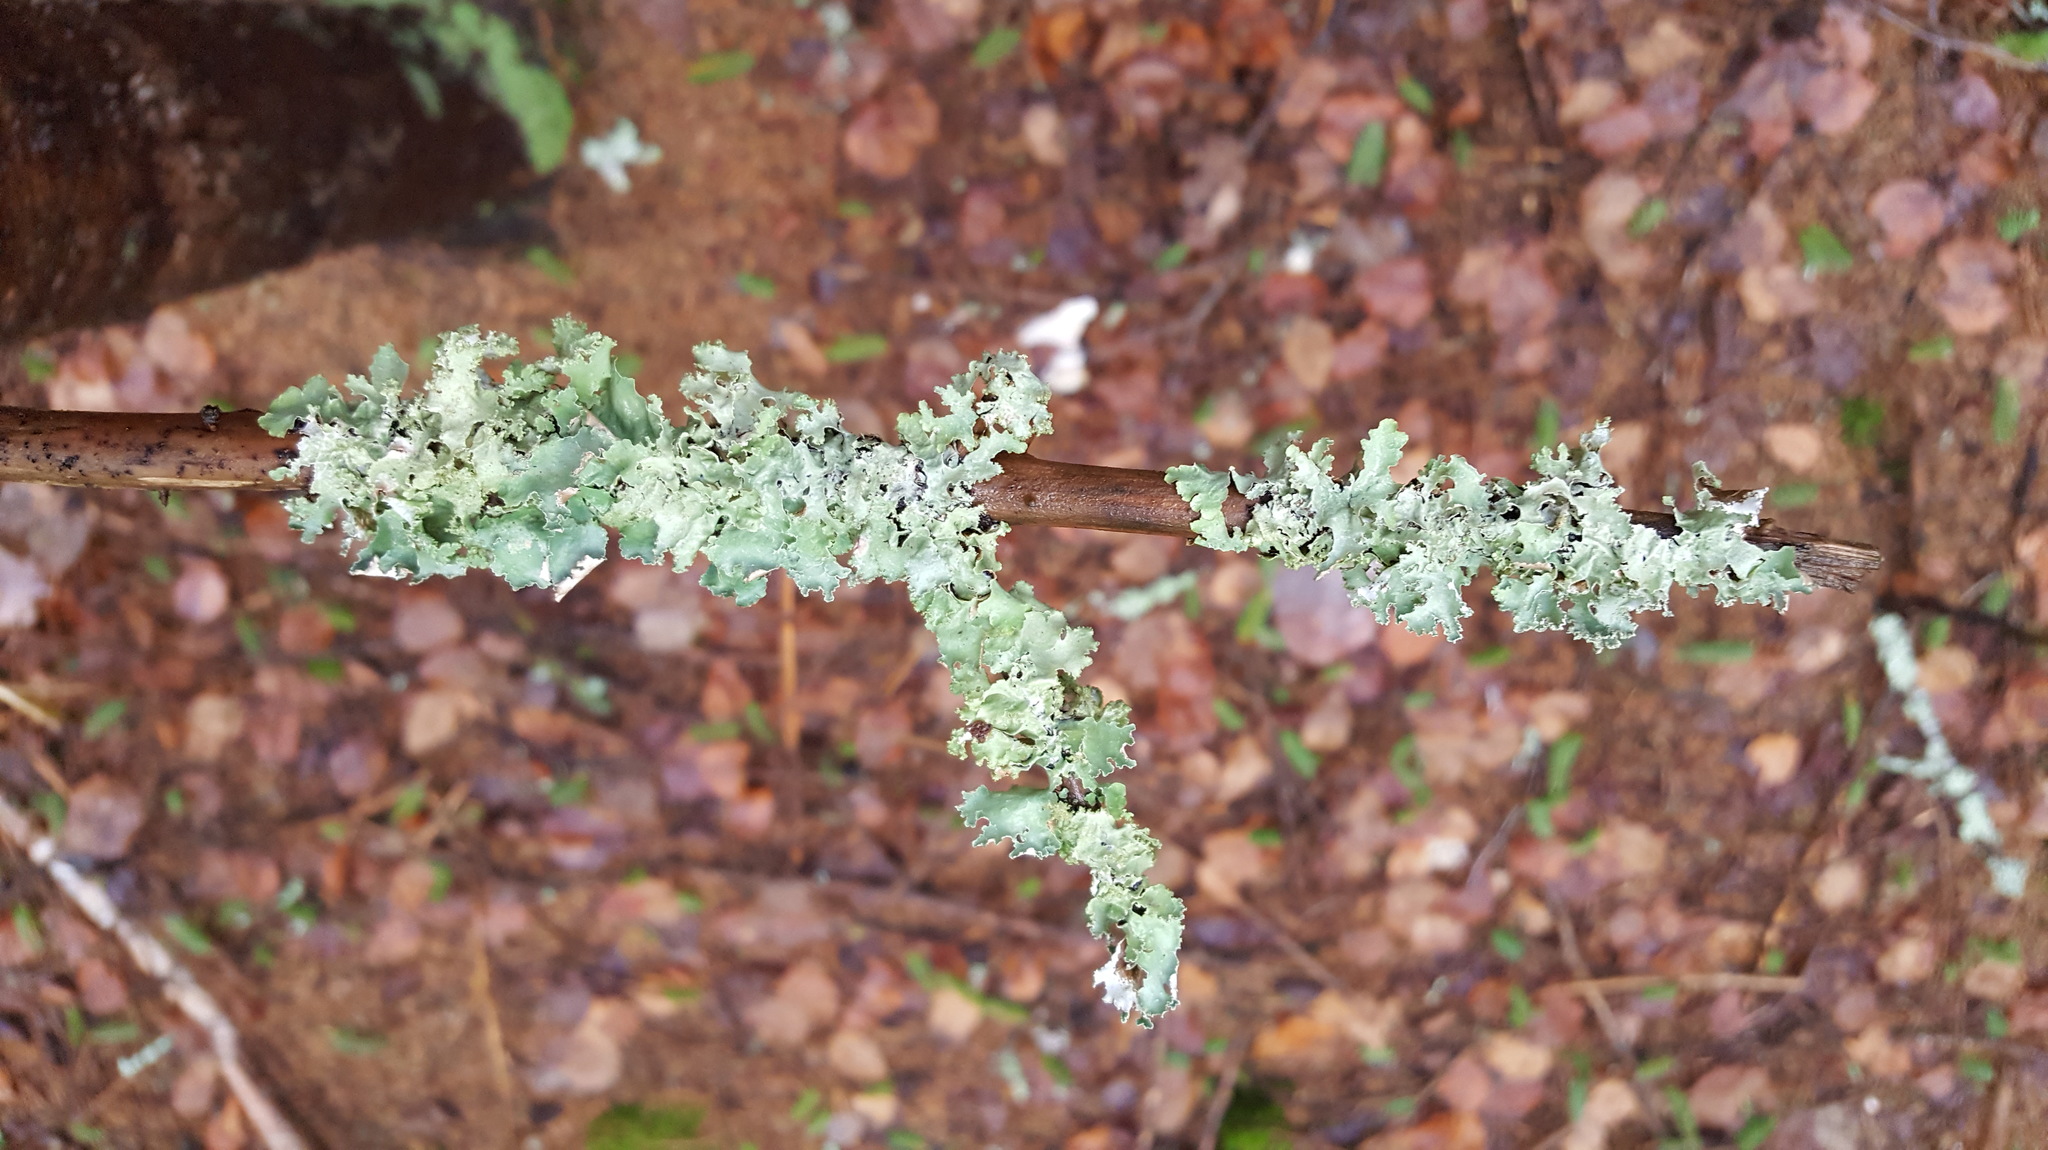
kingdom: Fungi
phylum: Ascomycota
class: Lecanoromycetes
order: Lecanorales
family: Parmeliaceae
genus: Platismatia
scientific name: Platismatia glauca
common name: Varied rag lichen
